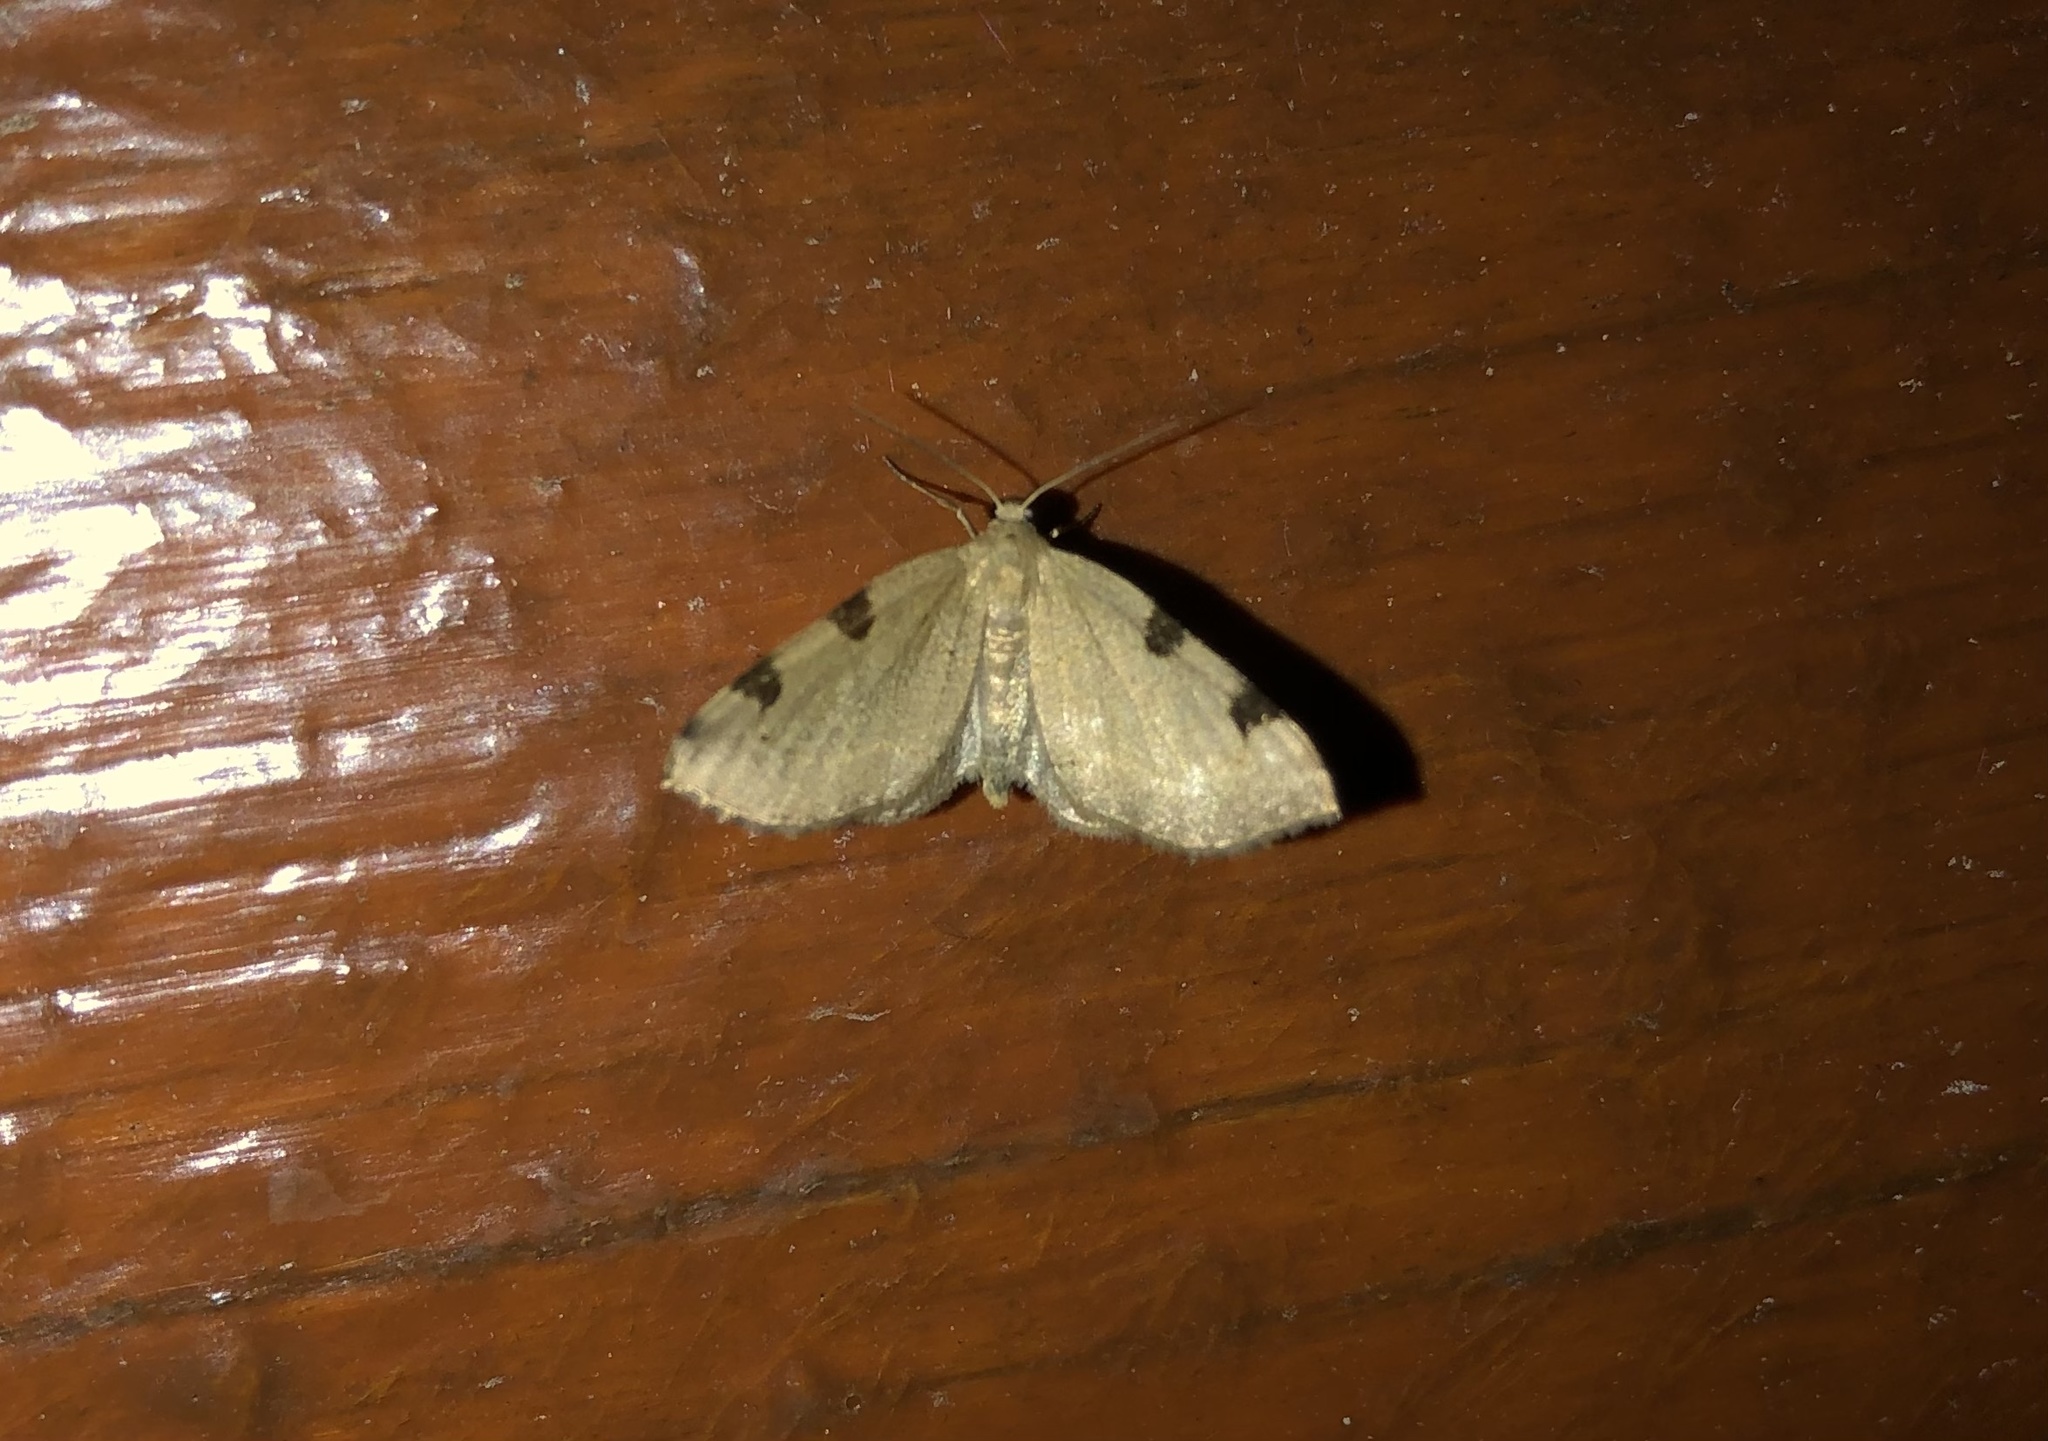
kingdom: Animalia
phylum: Arthropoda
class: Insecta
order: Lepidoptera
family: Geometridae
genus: Heterophleps
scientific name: Heterophleps triguttaria
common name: Three-spotted fillip
